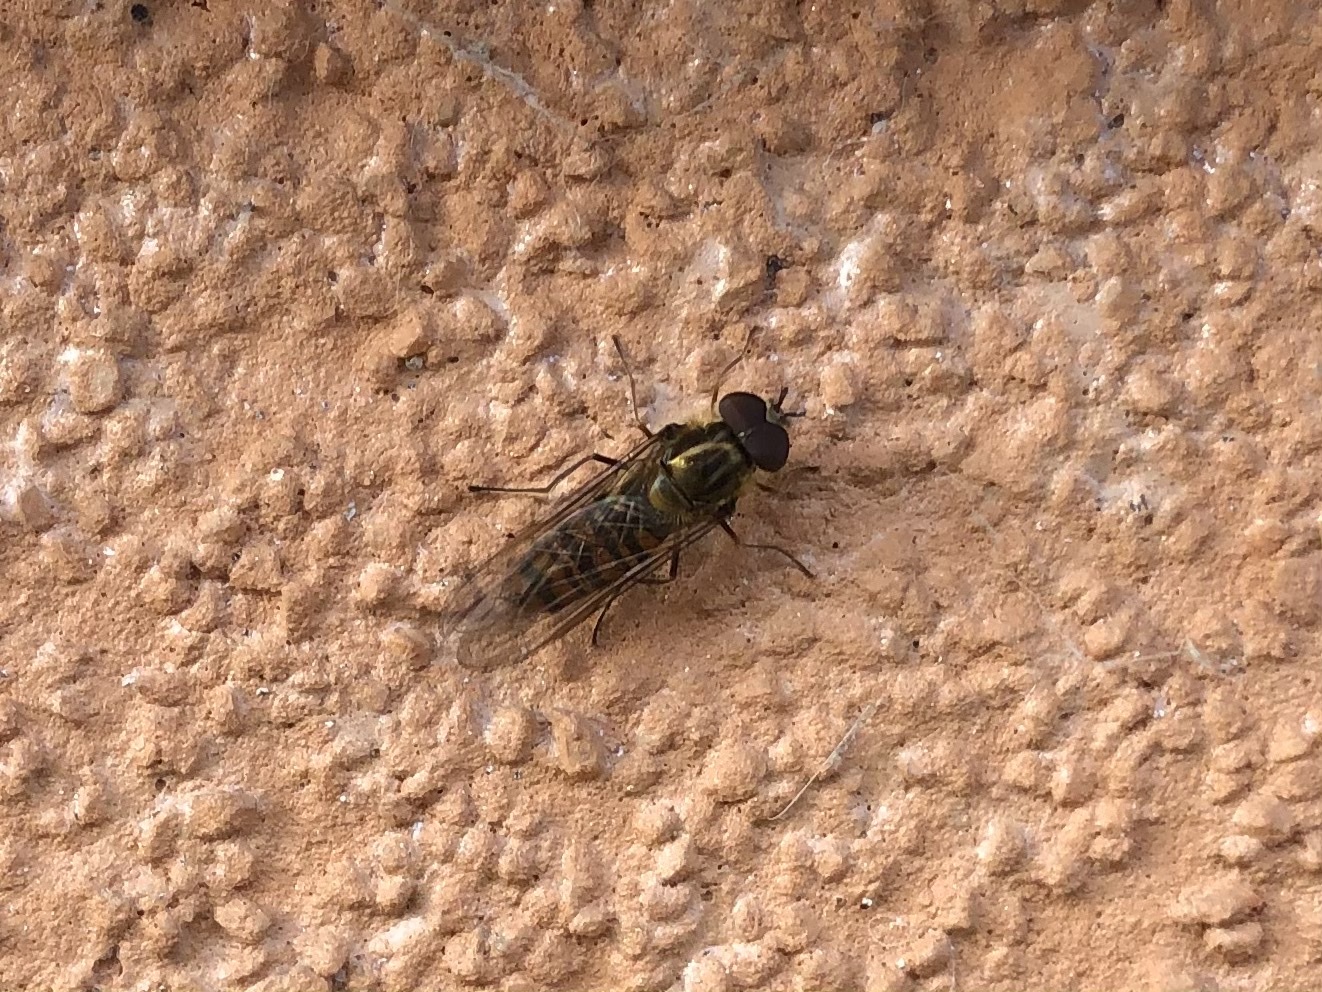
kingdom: Animalia
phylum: Arthropoda
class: Insecta
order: Diptera
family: Syrphidae
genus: Episyrphus
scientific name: Episyrphus balteatus
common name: Marmalade hoverfly
